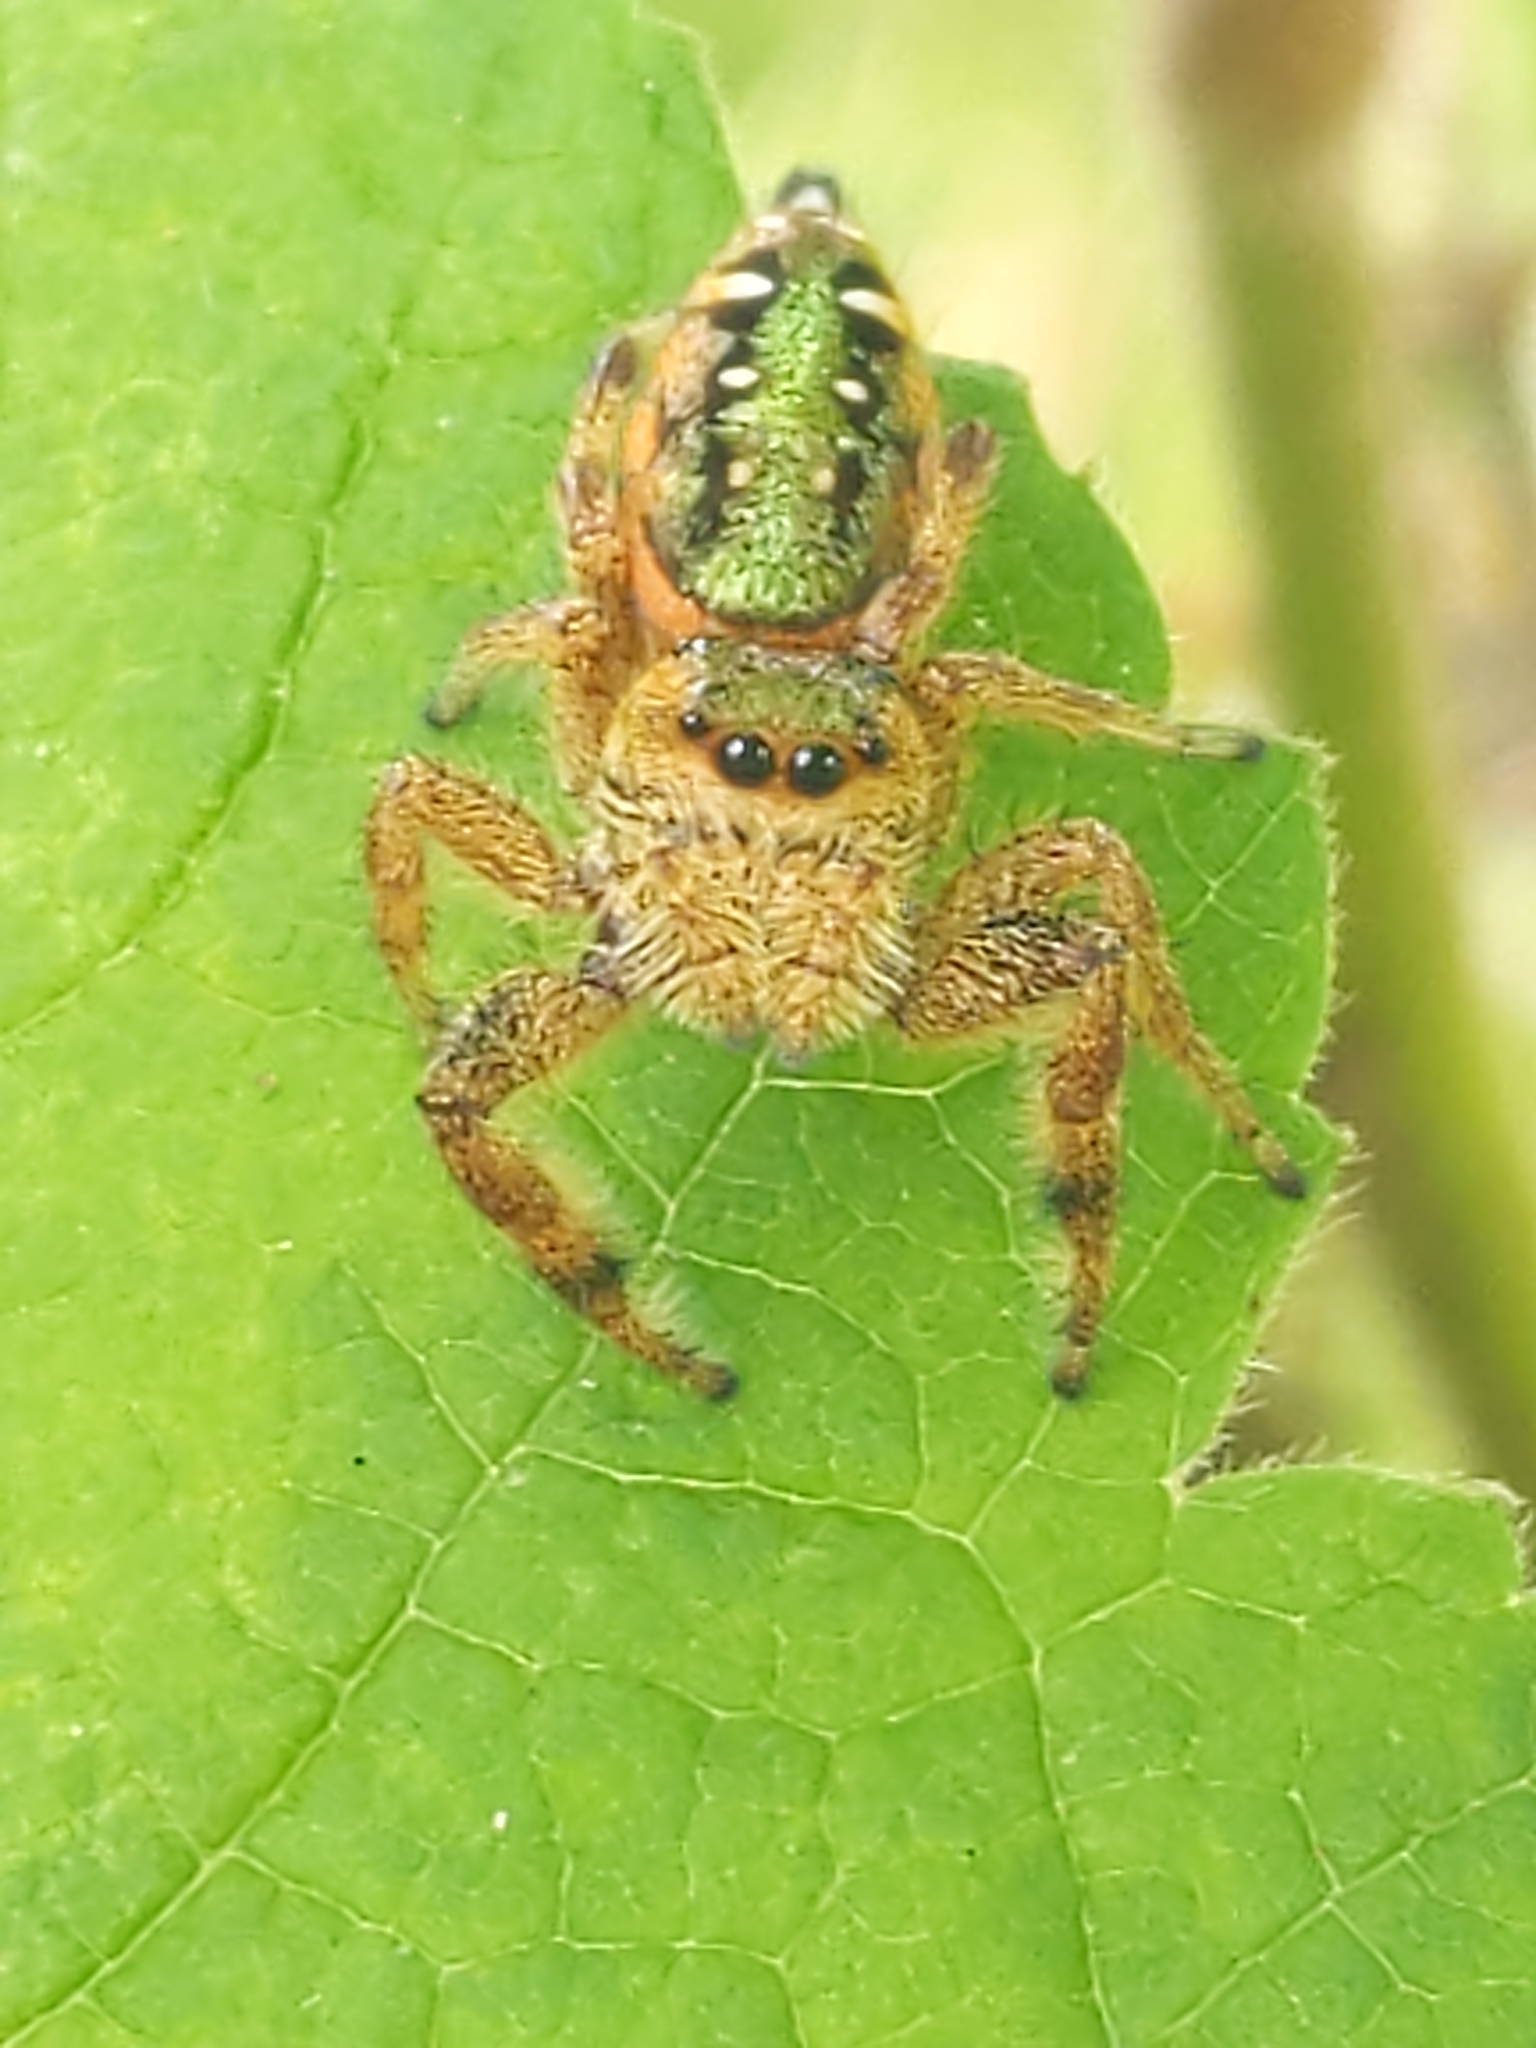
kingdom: Animalia
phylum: Arthropoda
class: Arachnida
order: Araneae
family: Salticidae
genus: Paraphidippus
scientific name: Paraphidippus aurantius
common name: Jumping spiders
